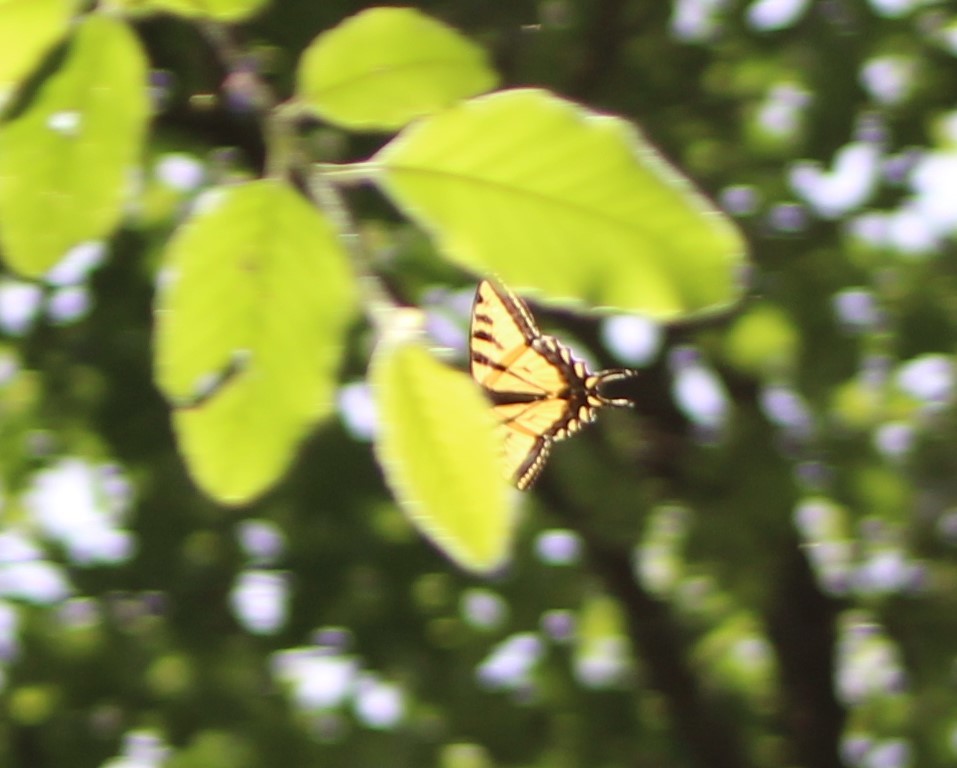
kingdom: Animalia
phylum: Arthropoda
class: Insecta
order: Lepidoptera
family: Papilionidae
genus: Papilio
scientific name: Papilio rutulus
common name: Western tiger swallowtail
